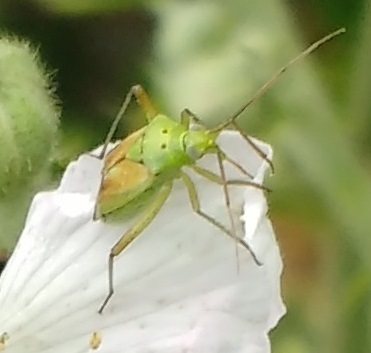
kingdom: Animalia
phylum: Arthropoda
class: Insecta
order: Hemiptera
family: Miridae
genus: Closterotomus
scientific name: Closterotomus norvegicus
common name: Plant bug
